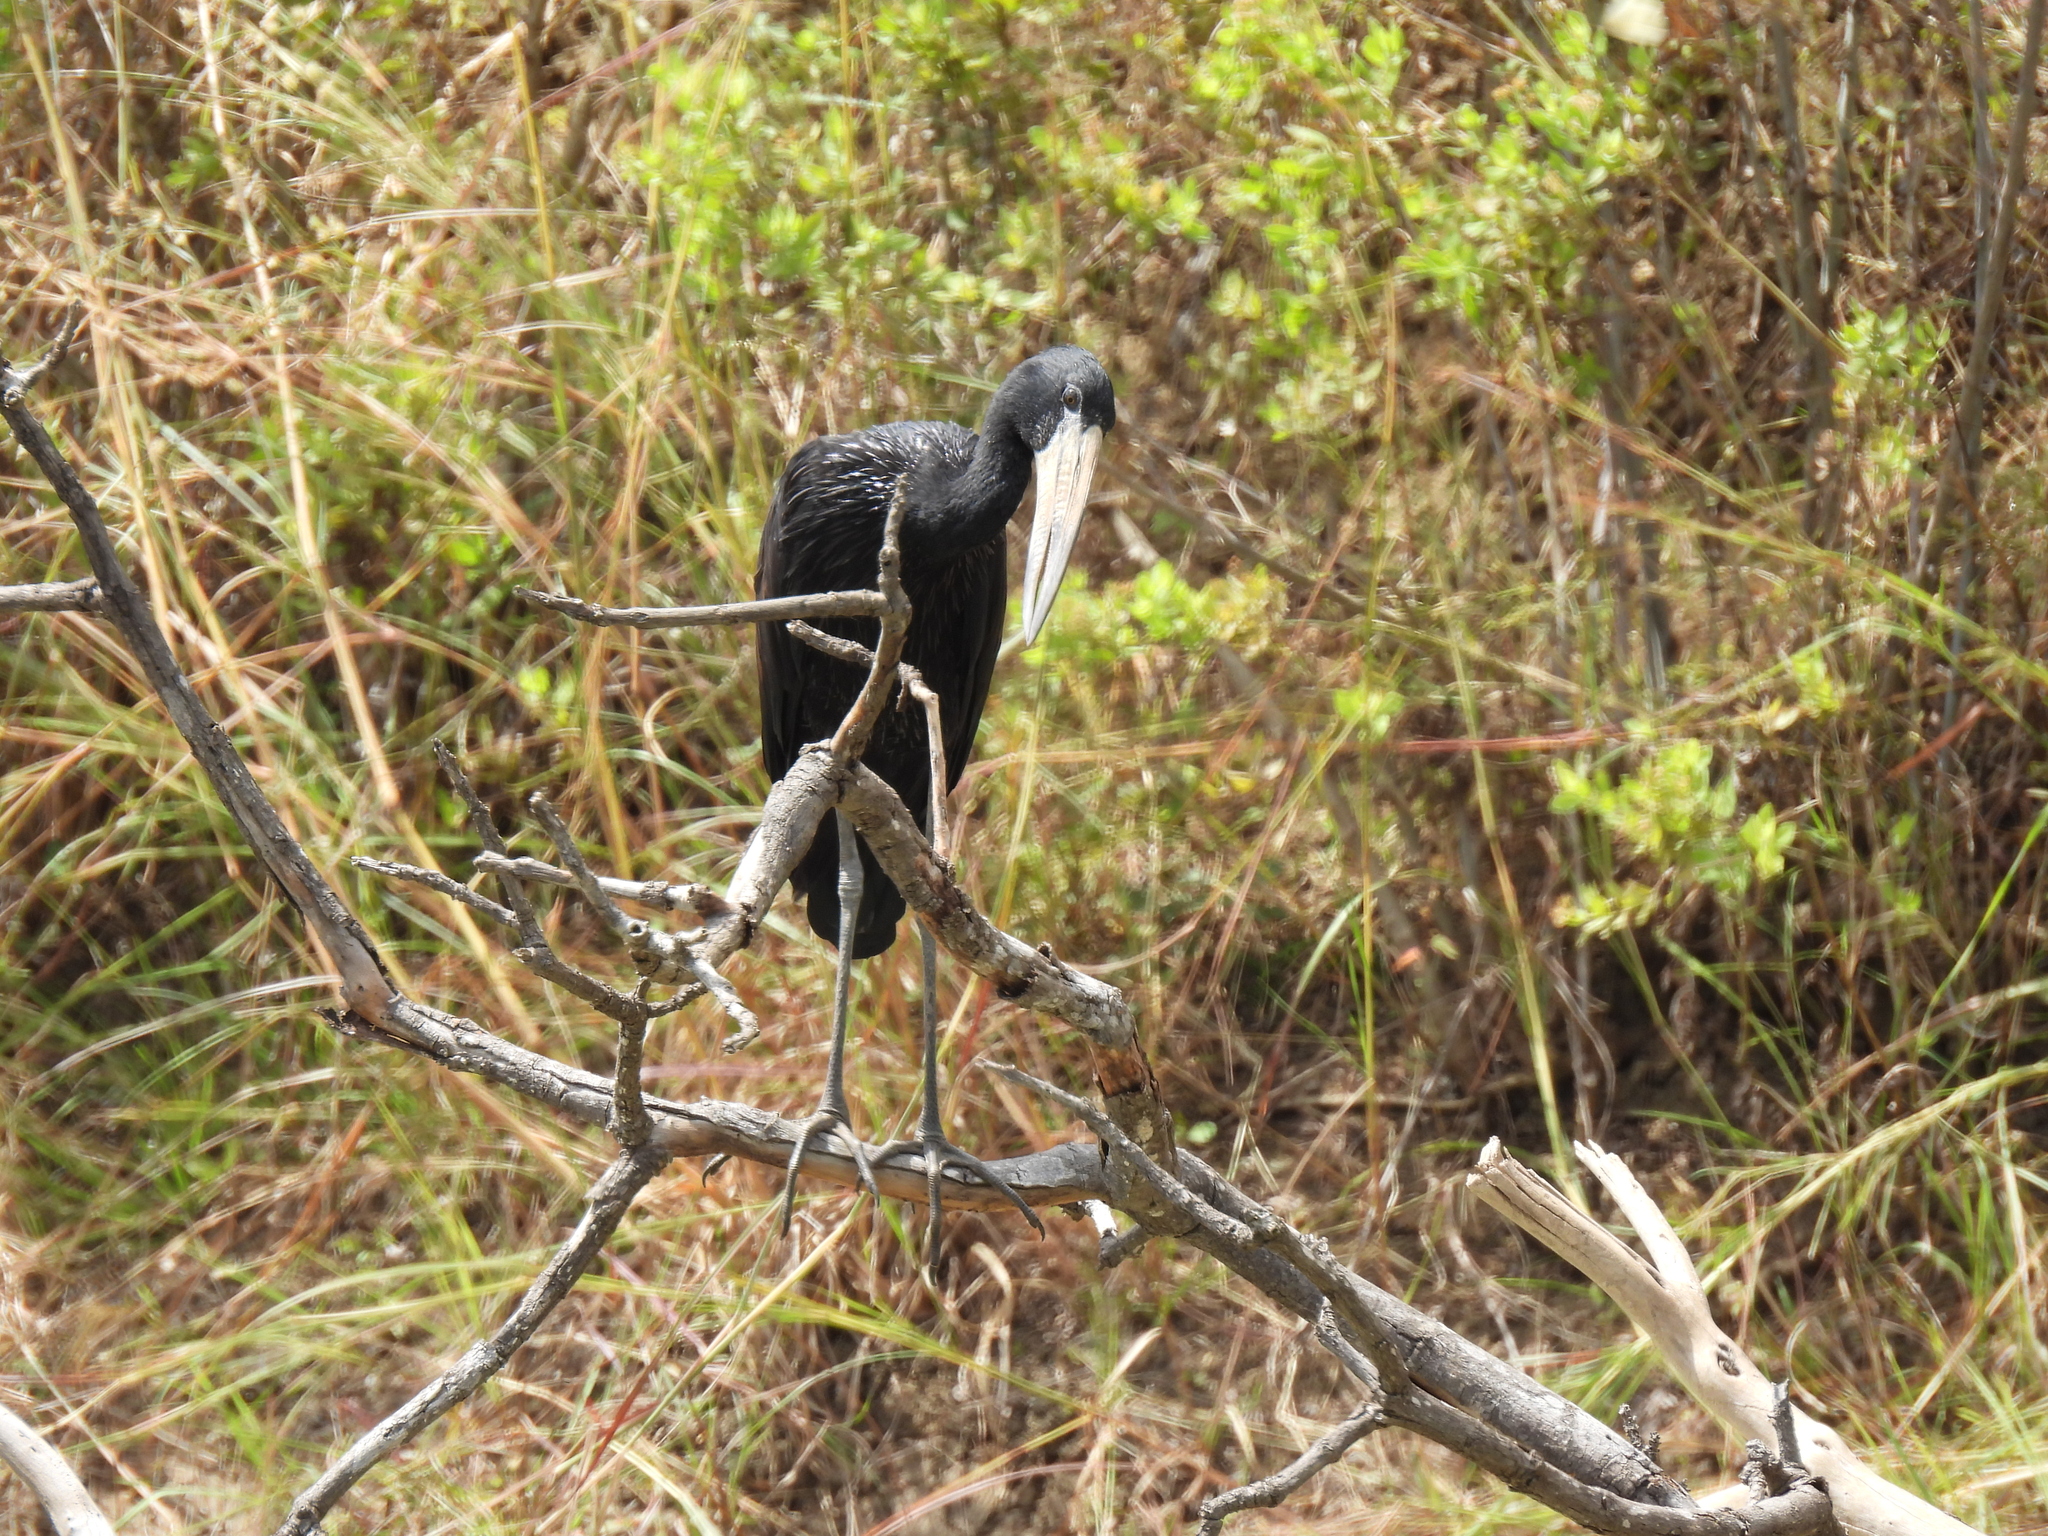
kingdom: Animalia
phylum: Chordata
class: Aves
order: Ciconiiformes
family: Ciconiidae
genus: Anastomus
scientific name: Anastomus lamelligerus
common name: African openbill
